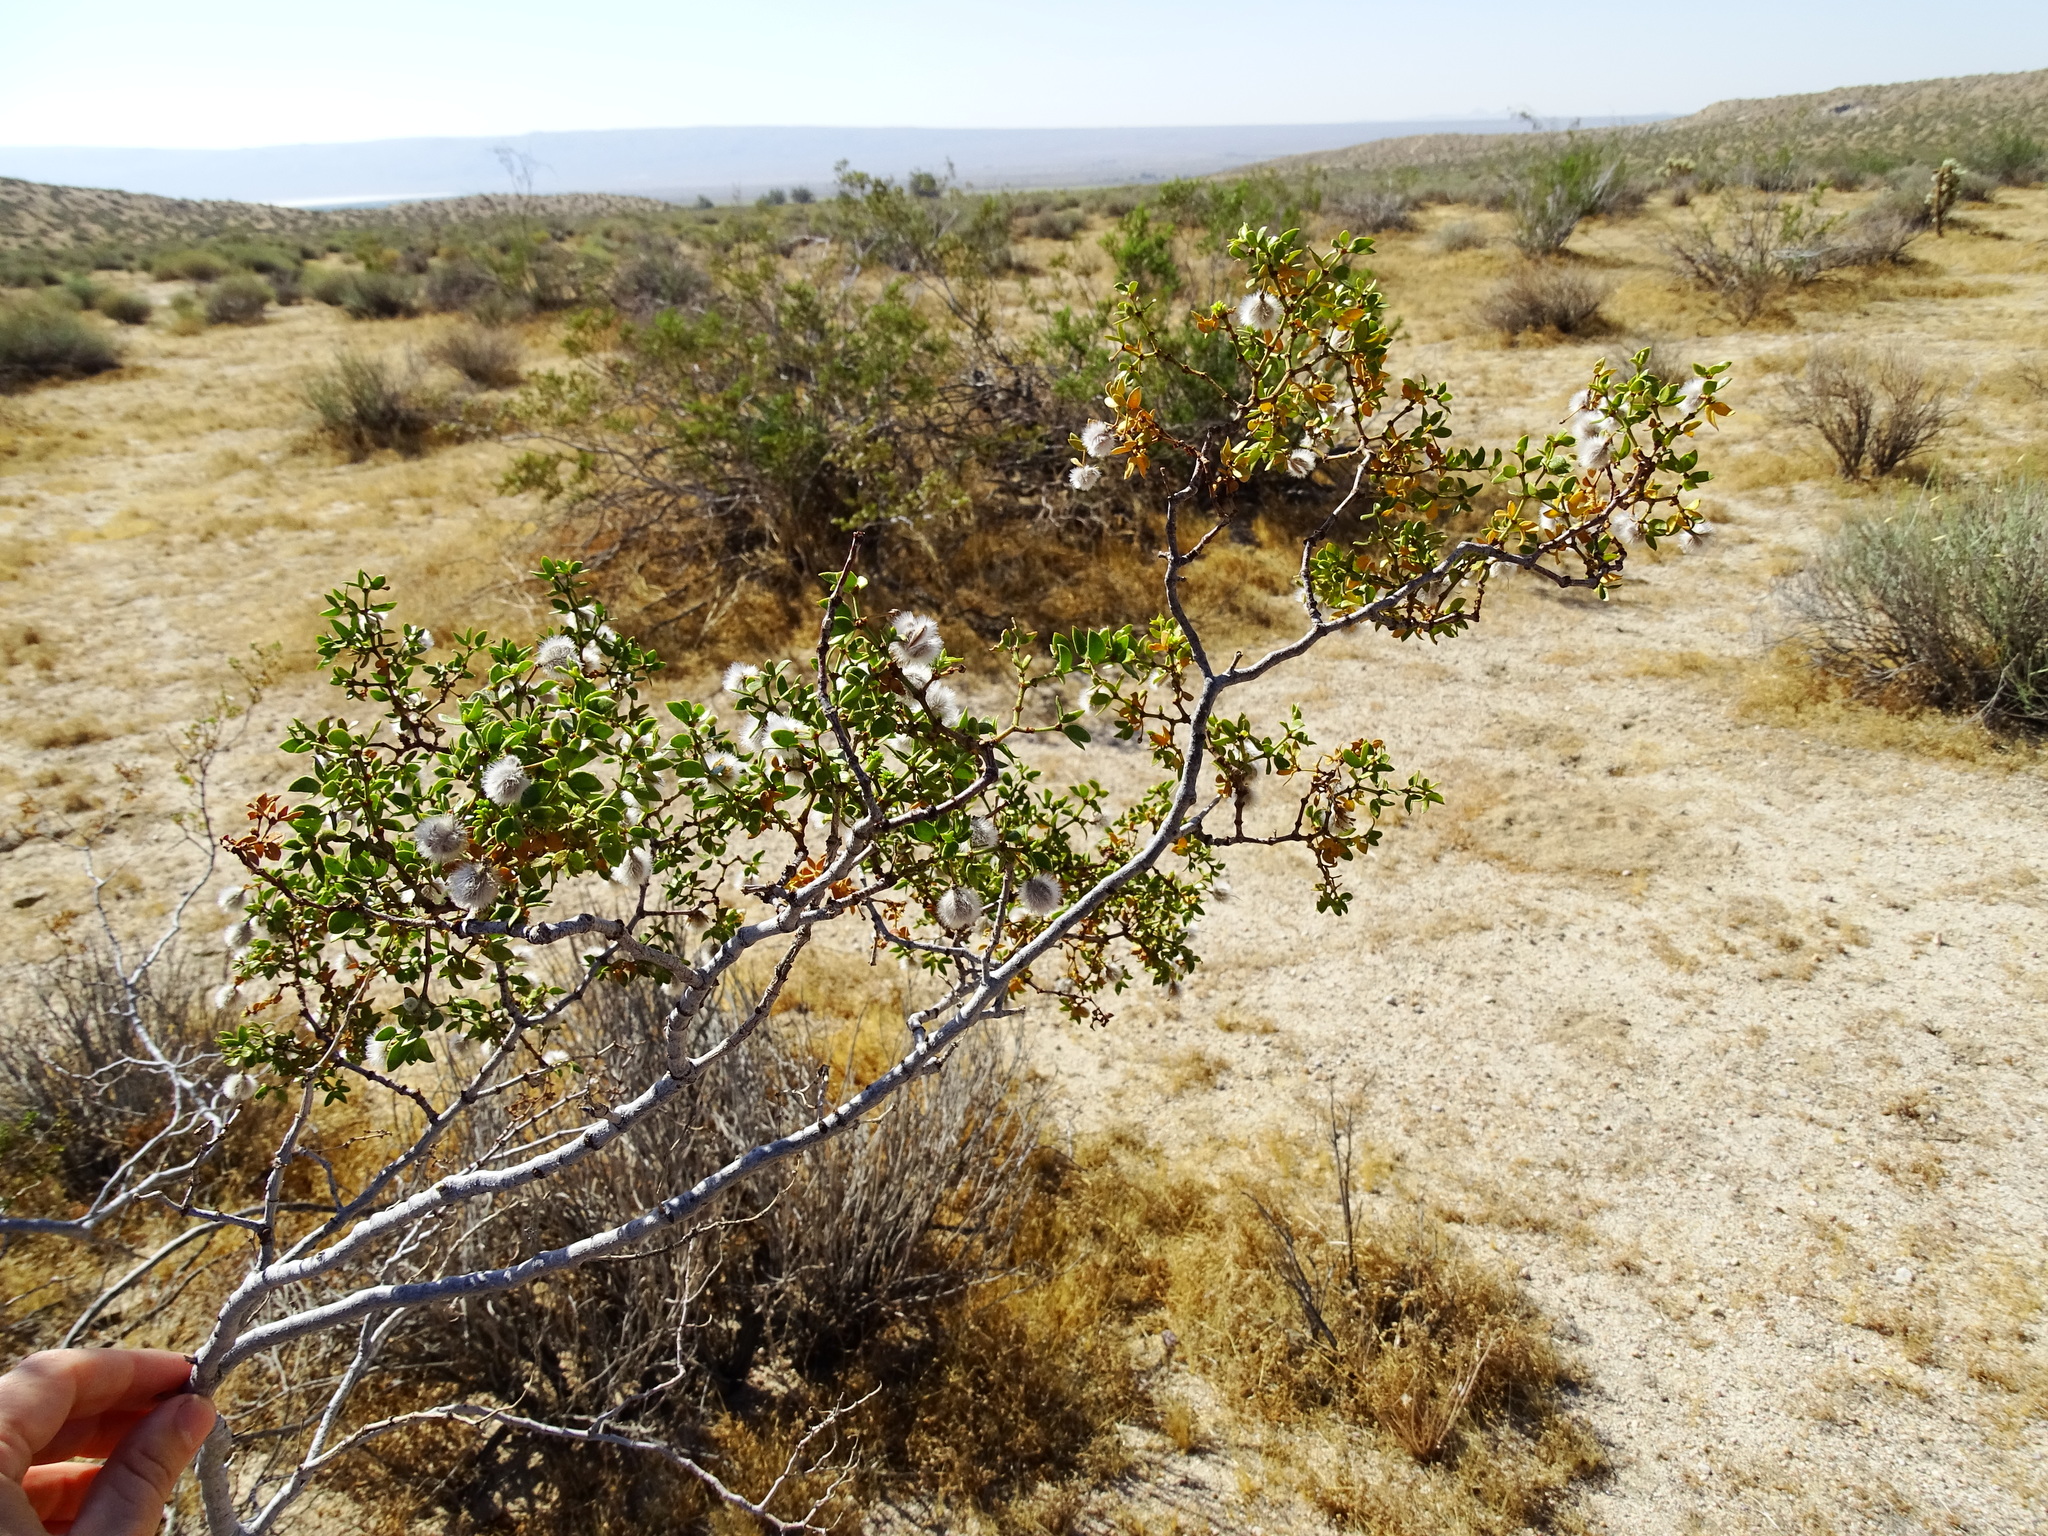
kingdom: Plantae
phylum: Tracheophyta
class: Magnoliopsida
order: Zygophyllales
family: Zygophyllaceae
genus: Larrea
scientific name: Larrea tridentata
